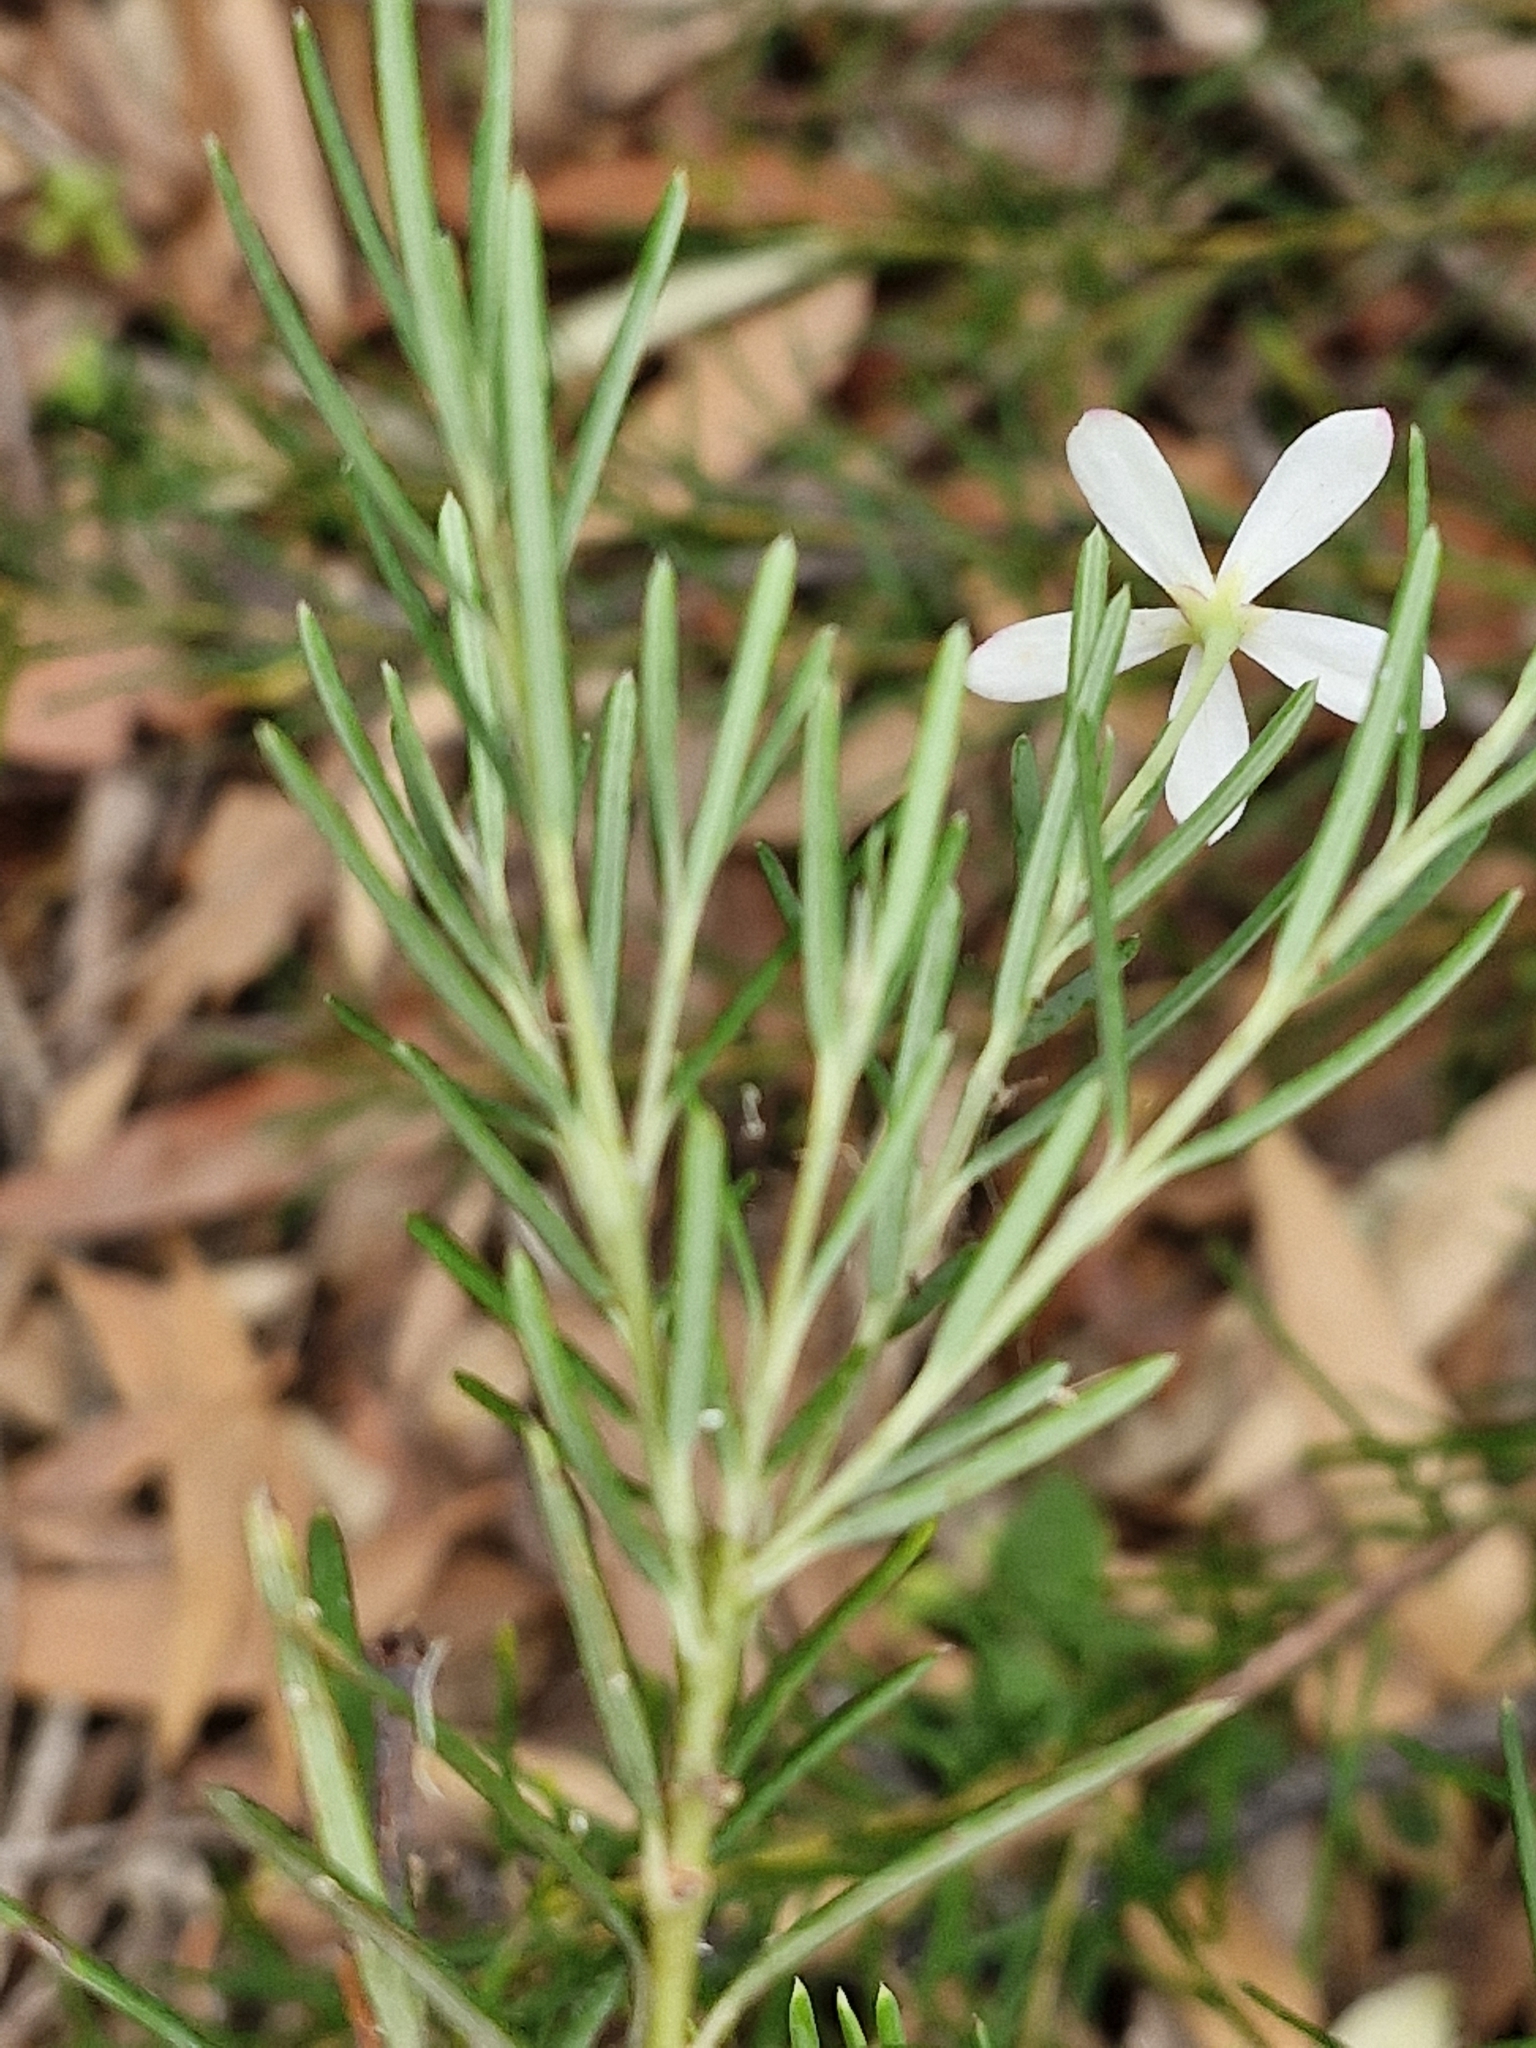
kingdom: Plantae
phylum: Tracheophyta
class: Magnoliopsida
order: Malpighiales
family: Euphorbiaceae
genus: Ricinocarpos
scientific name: Ricinocarpos pinifolius
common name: Weddingbush
